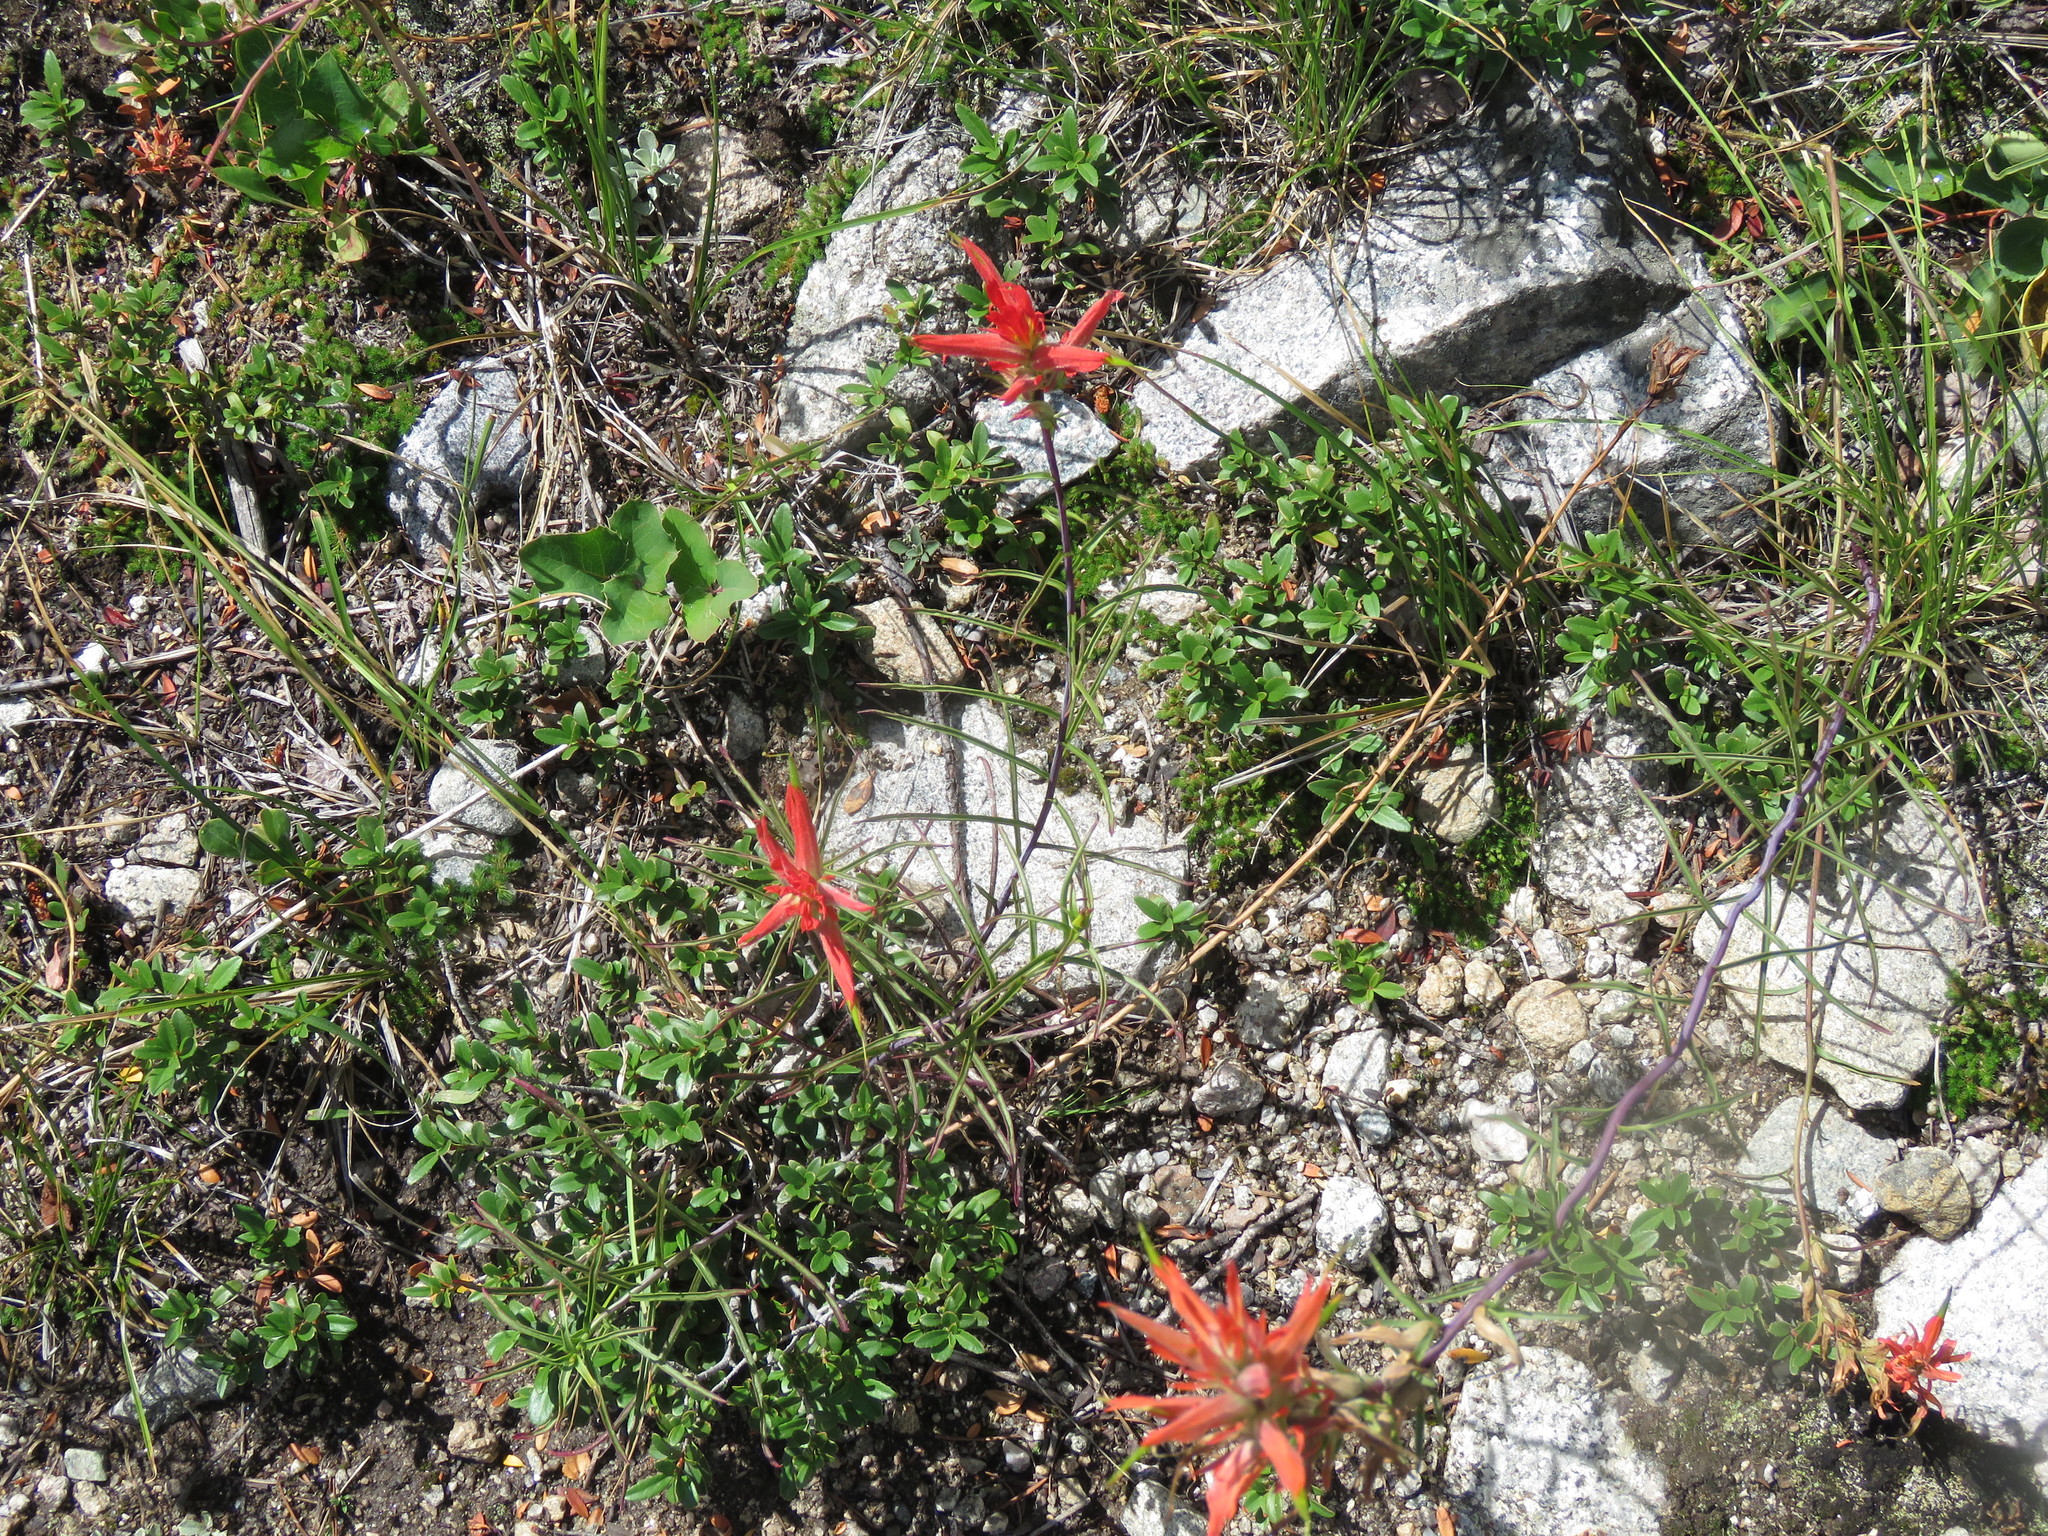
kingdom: Plantae
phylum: Tracheophyta
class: Magnoliopsida
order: Lamiales
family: Orobanchaceae
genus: Castilleja
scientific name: Castilleja linariifolia
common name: Wyoming paintbrush
